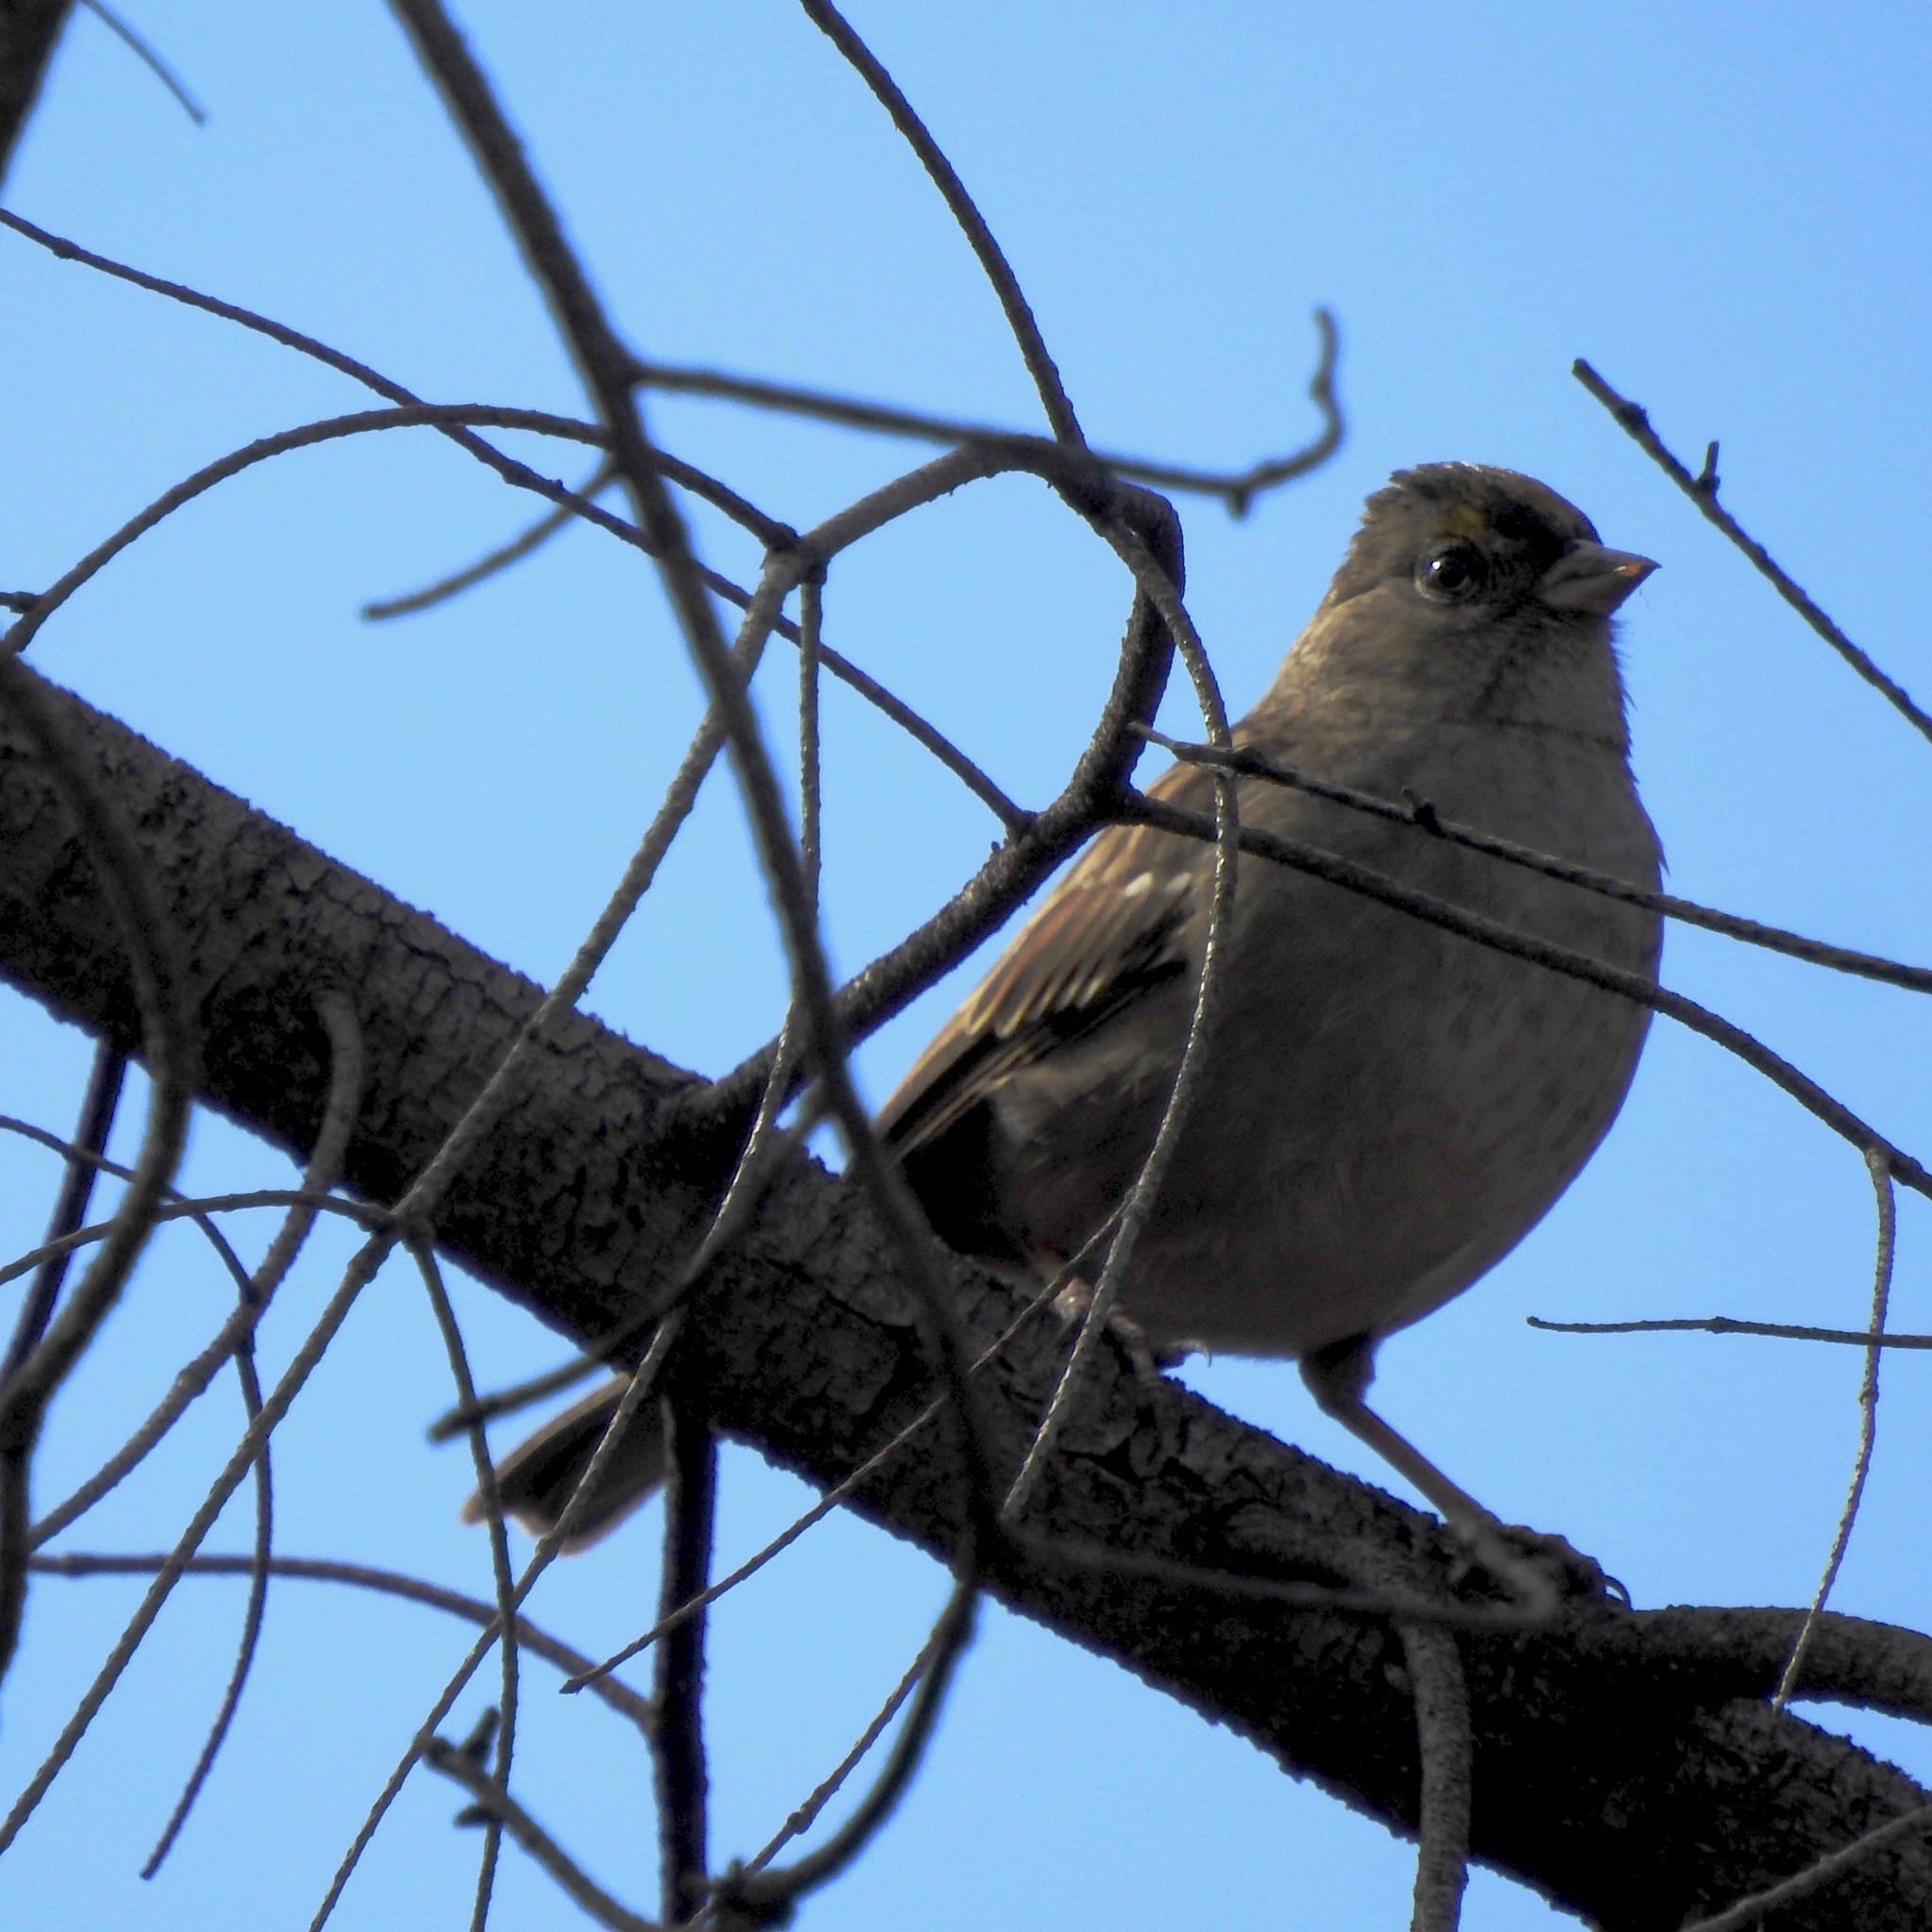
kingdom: Animalia
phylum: Chordata
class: Aves
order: Passeriformes
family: Passerellidae
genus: Zonotrichia
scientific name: Zonotrichia atricapilla
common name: Golden-crowned sparrow
